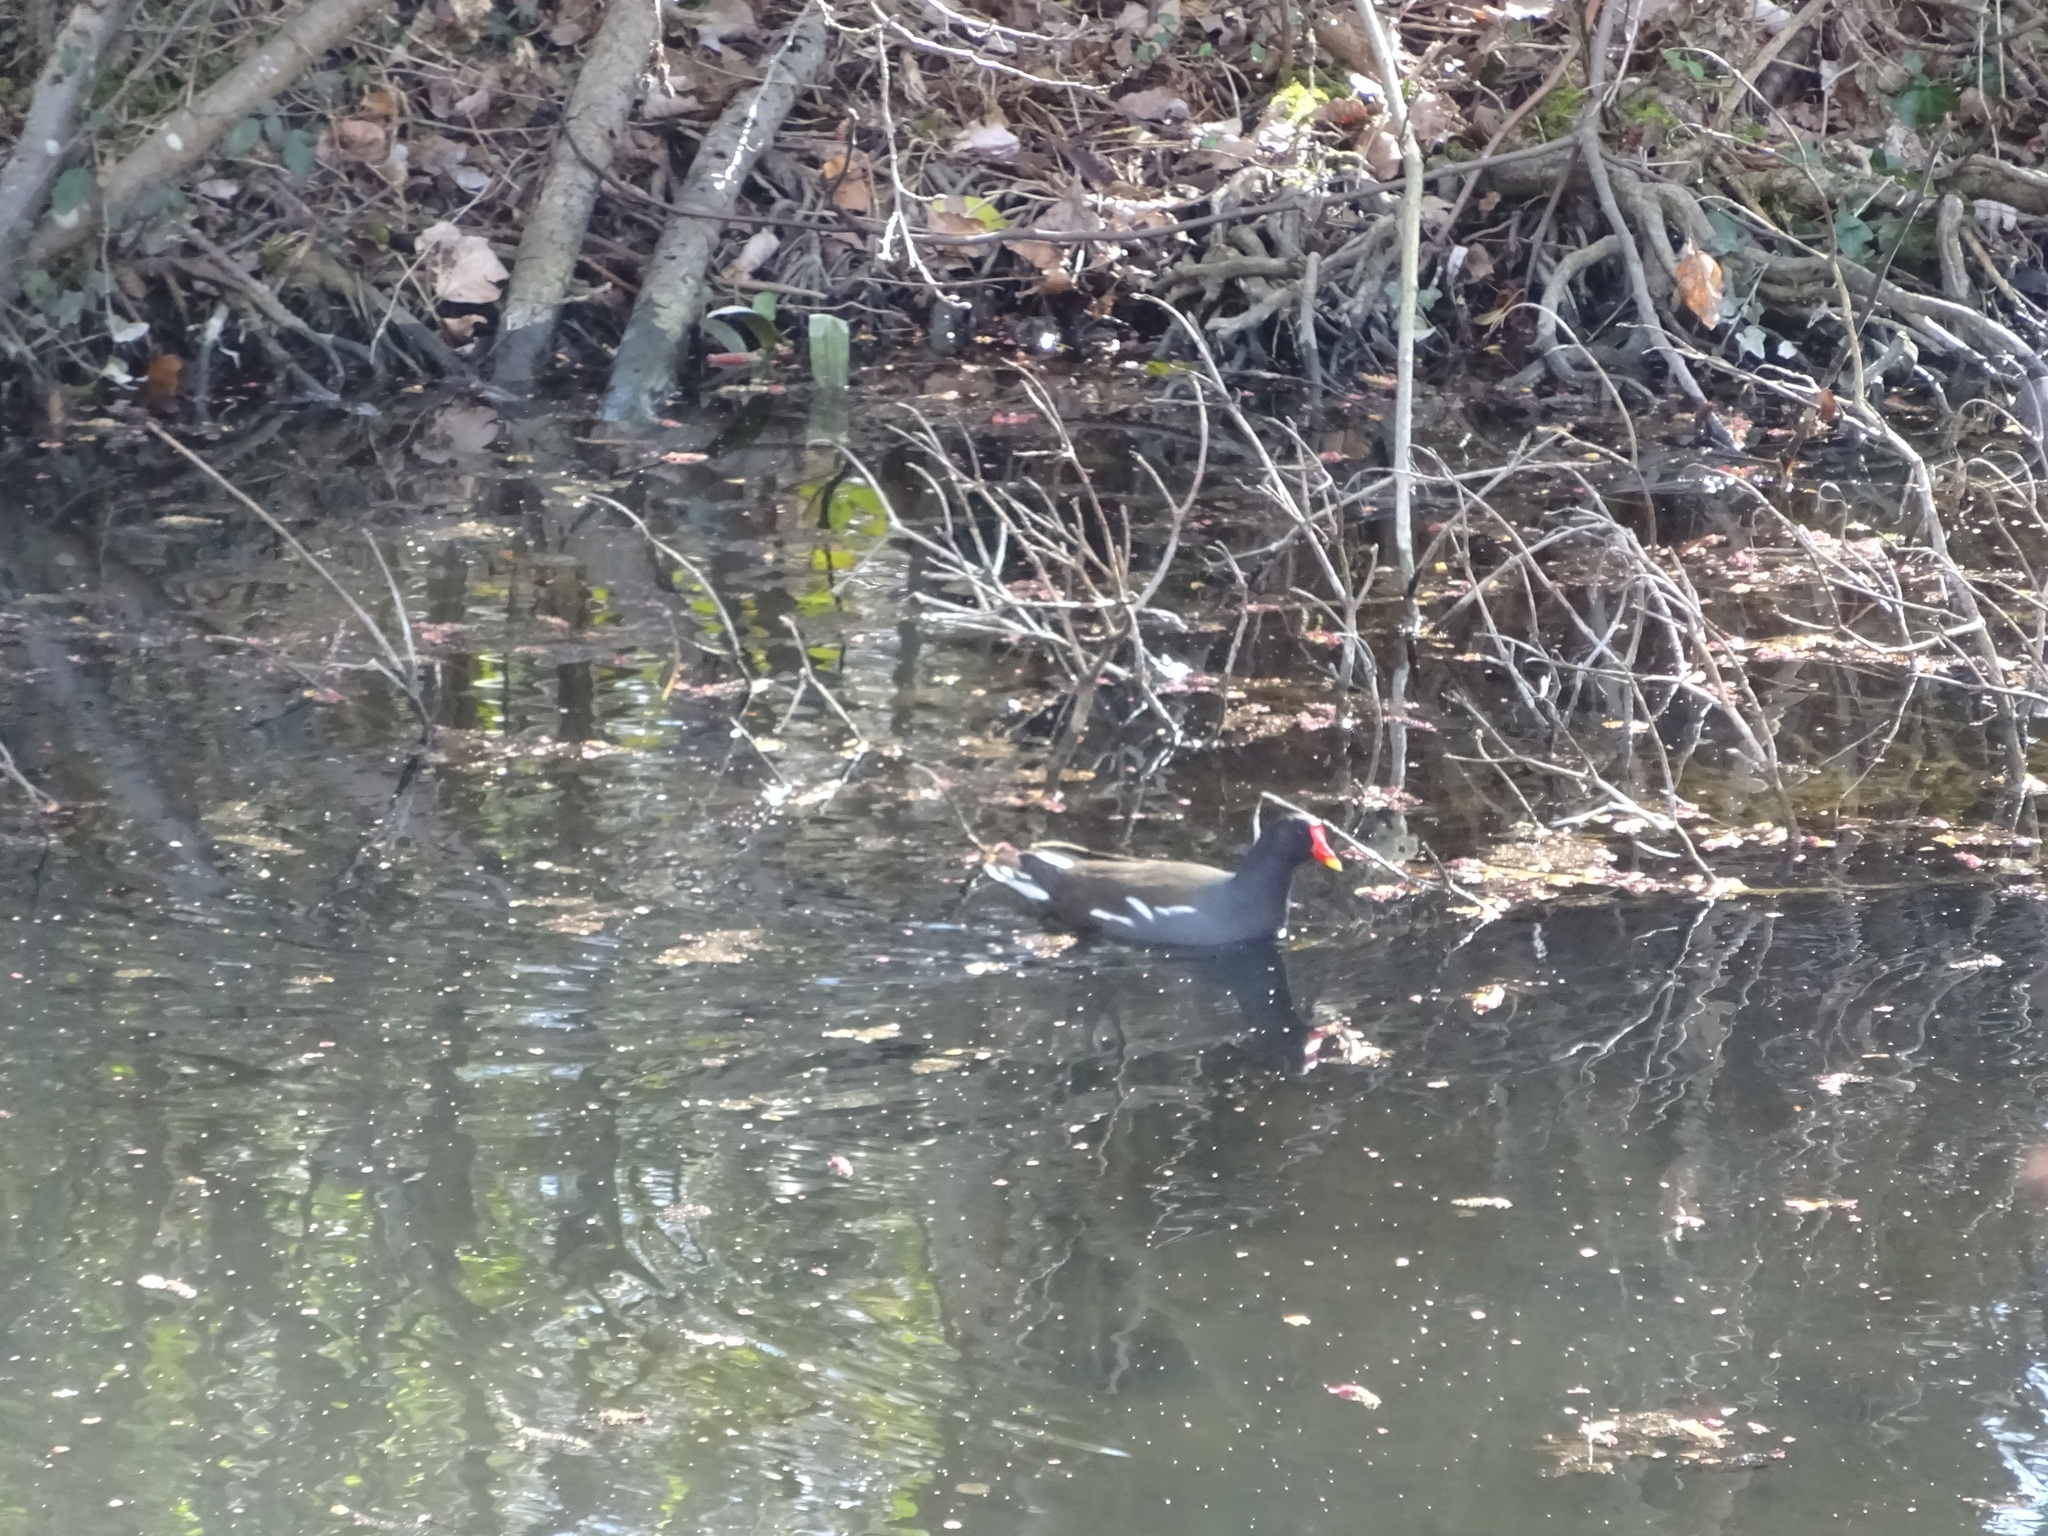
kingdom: Animalia
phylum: Chordata
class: Aves
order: Gruiformes
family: Rallidae
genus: Gallinula
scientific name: Gallinula chloropus
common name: Common moorhen
